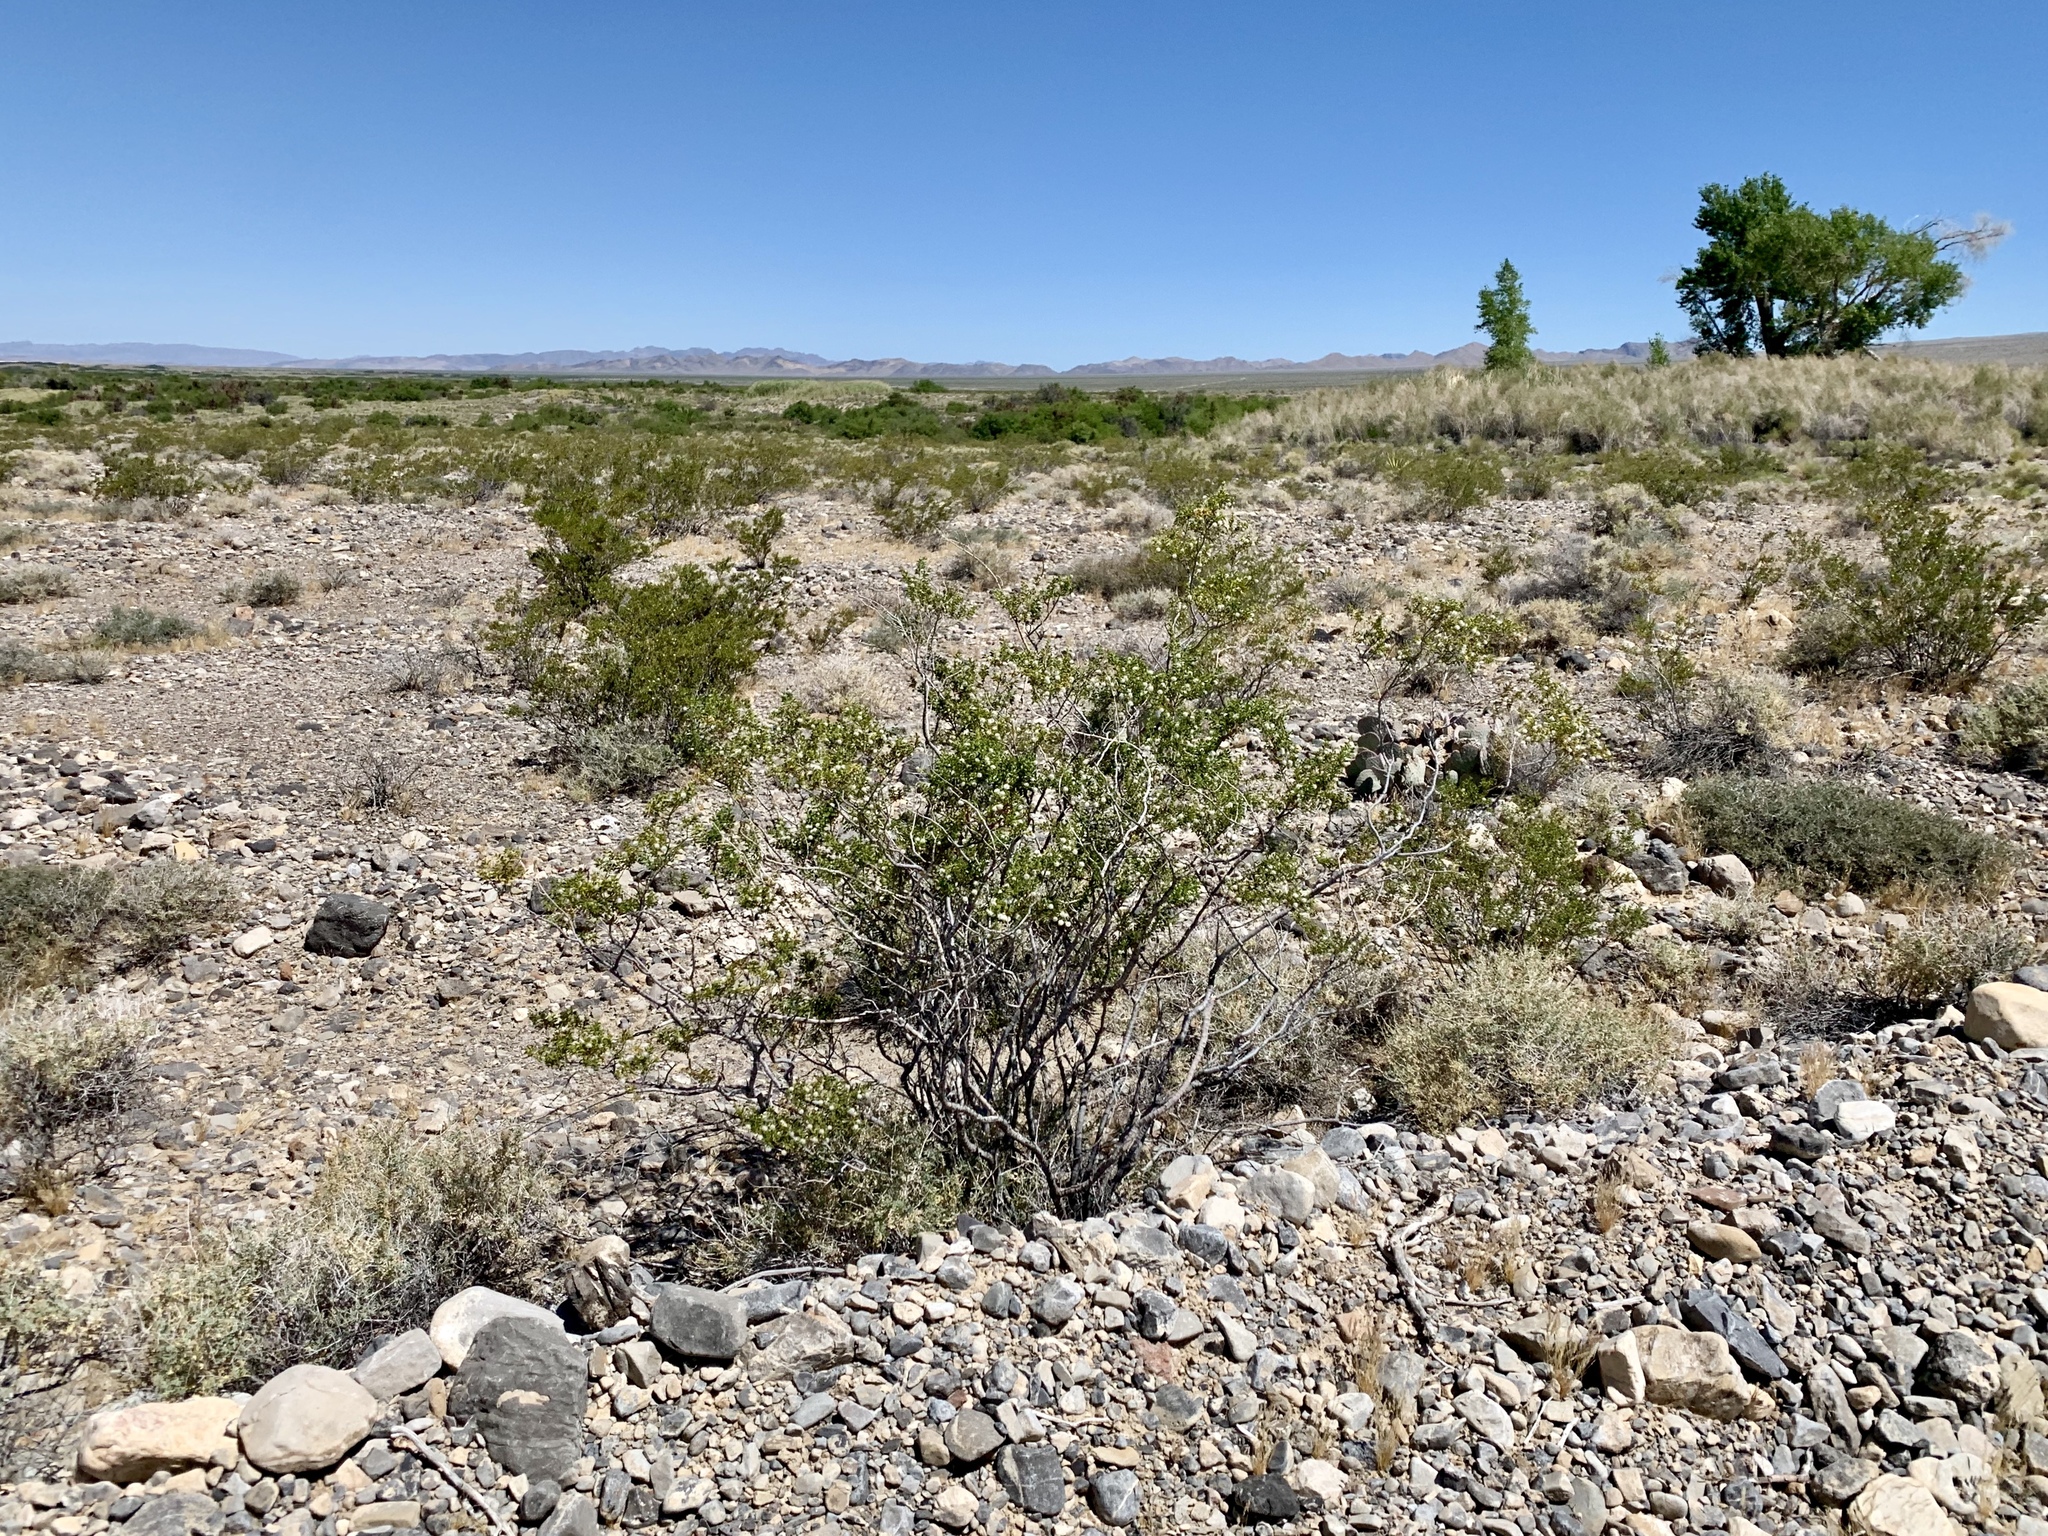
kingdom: Plantae
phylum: Tracheophyta
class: Magnoliopsida
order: Zygophyllales
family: Zygophyllaceae
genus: Larrea
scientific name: Larrea tridentata
